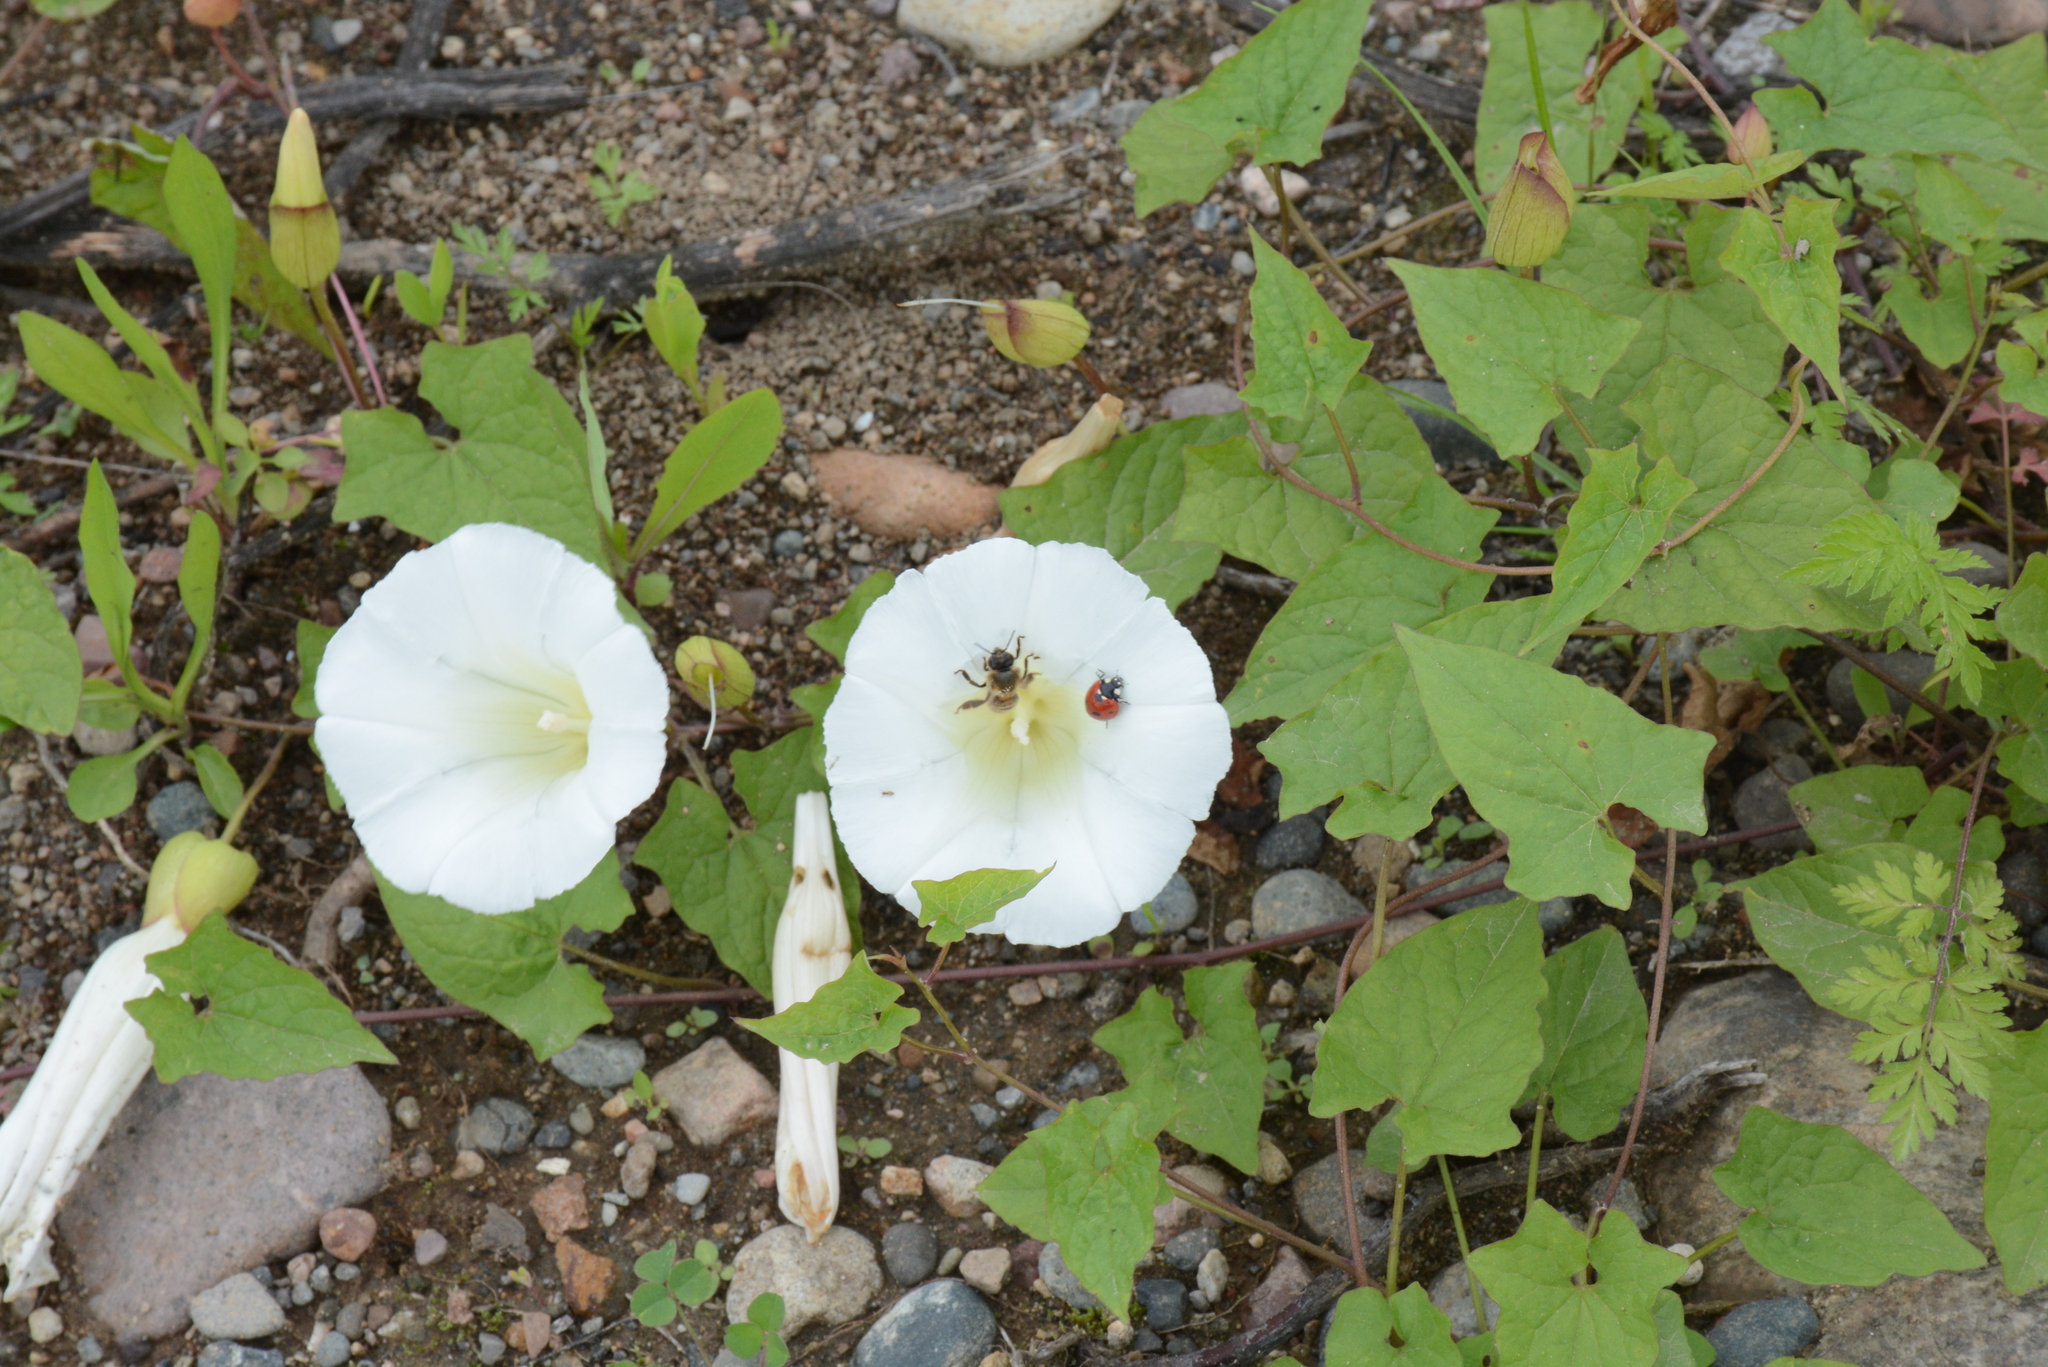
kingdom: Animalia
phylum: Arthropoda
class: Insecta
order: Coleoptera
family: Coccinellidae
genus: Coccinella
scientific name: Coccinella septempunctata
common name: Sevenspotted lady beetle
